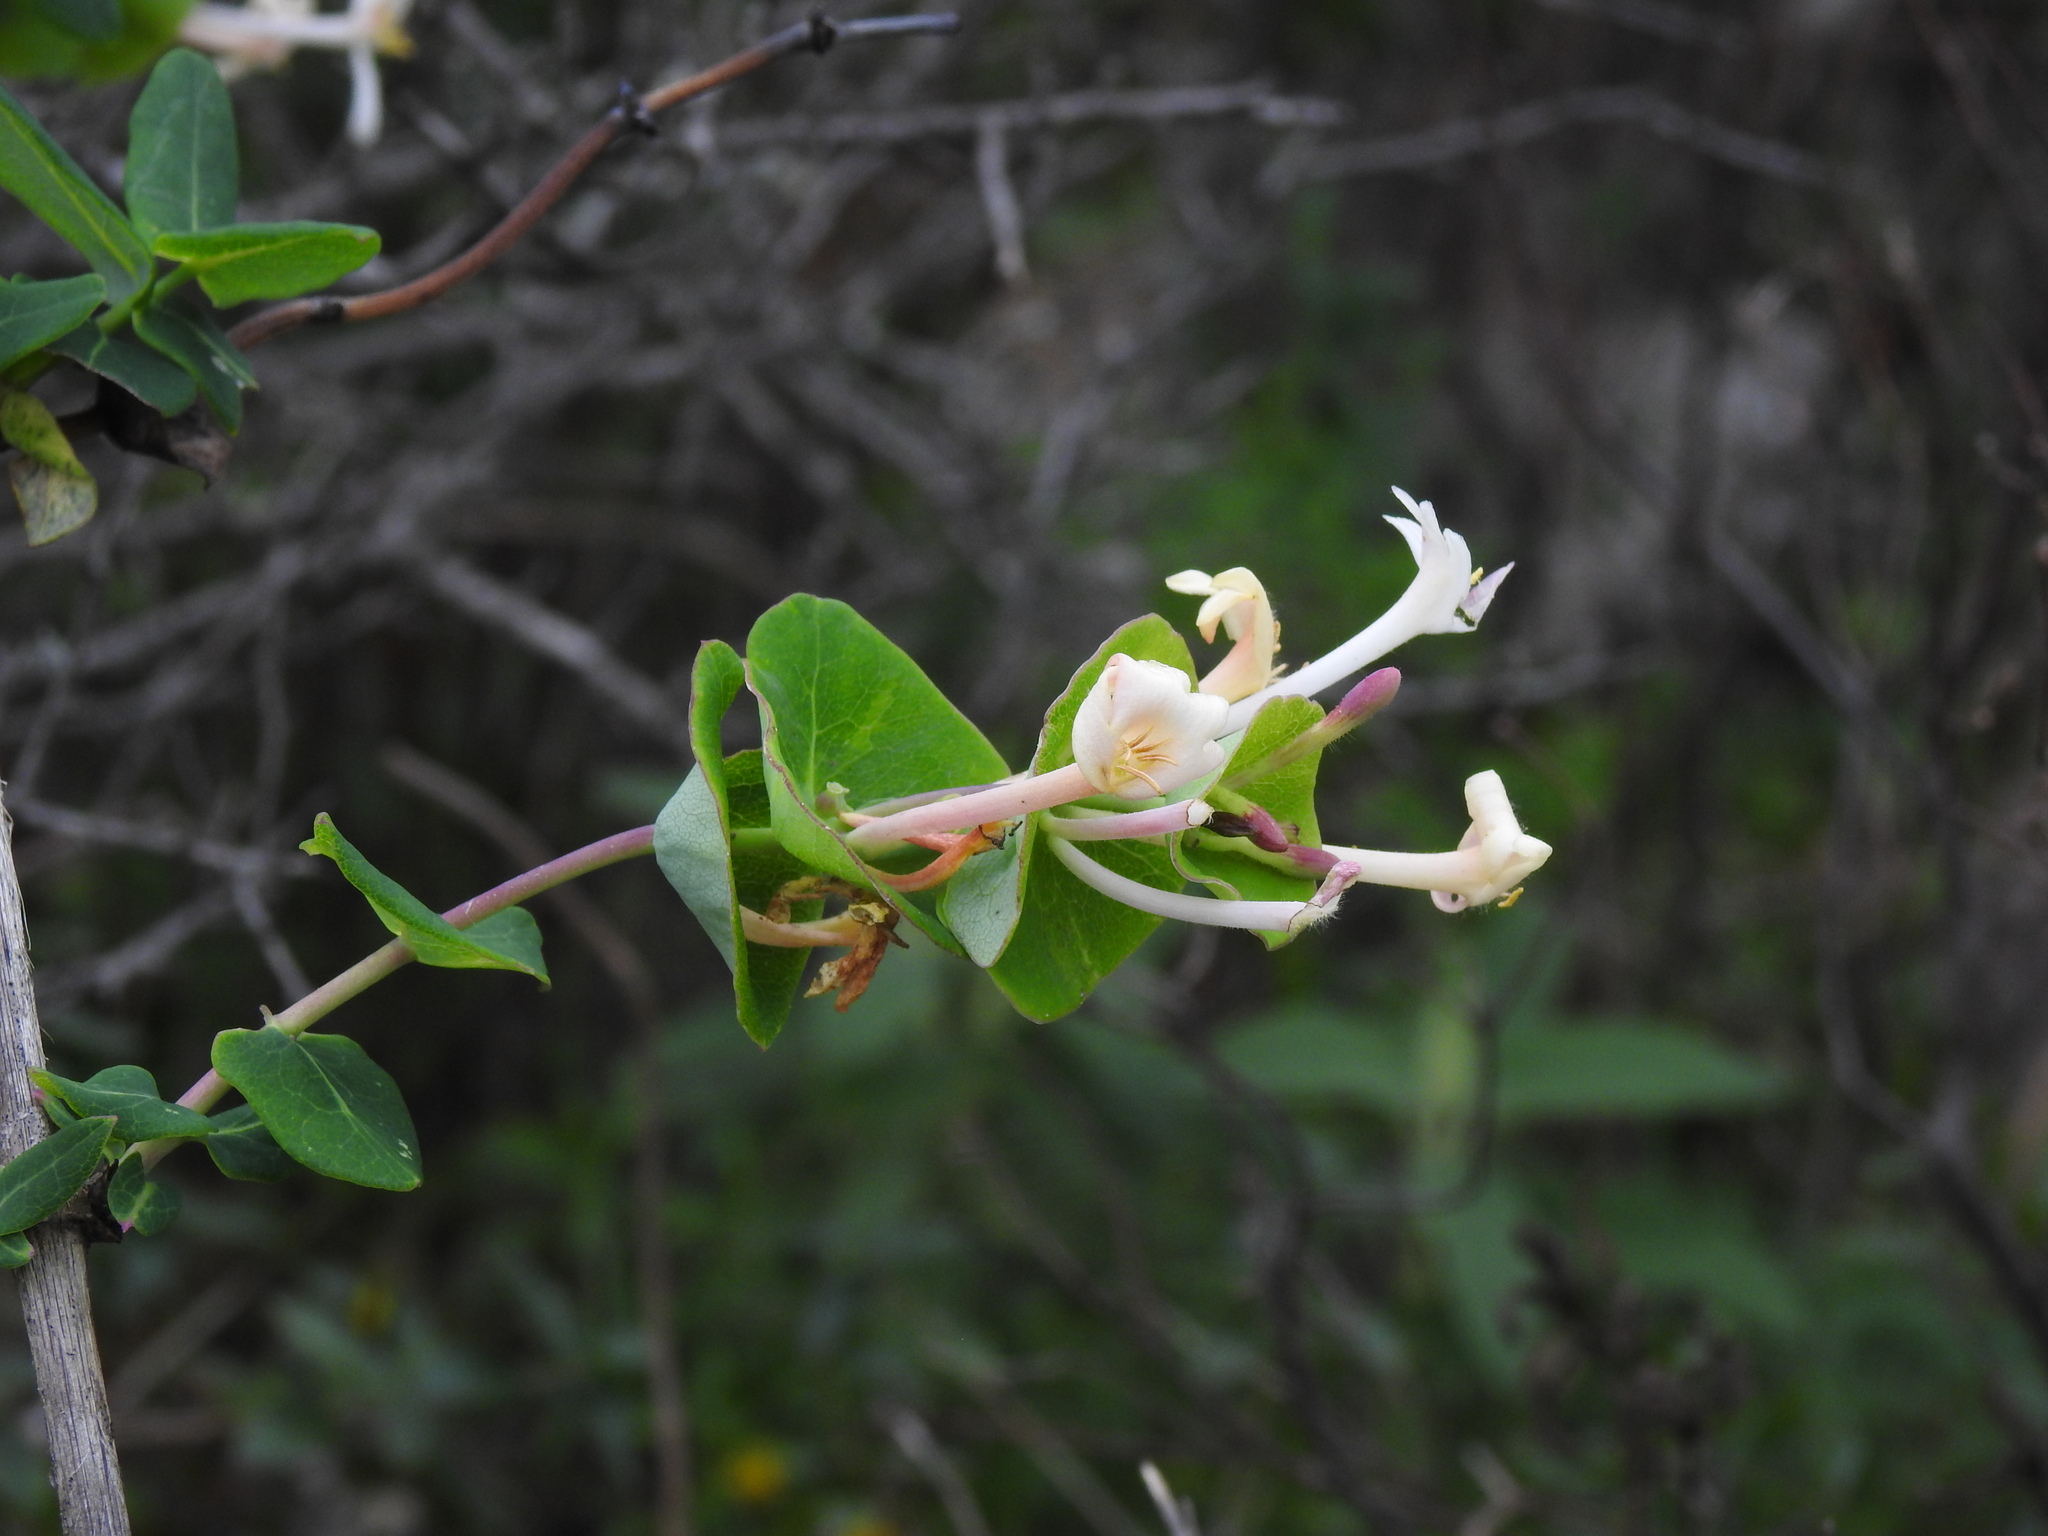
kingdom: Plantae
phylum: Tracheophyta
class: Magnoliopsida
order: Dipsacales
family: Caprifoliaceae
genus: Lonicera
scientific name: Lonicera implexa
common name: Minorca honeysuckle
